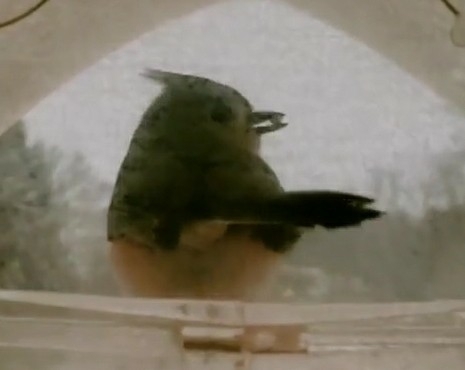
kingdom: Animalia
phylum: Chordata
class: Aves
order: Passeriformes
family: Paridae
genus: Baeolophus
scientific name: Baeolophus bicolor
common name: Tufted titmouse
